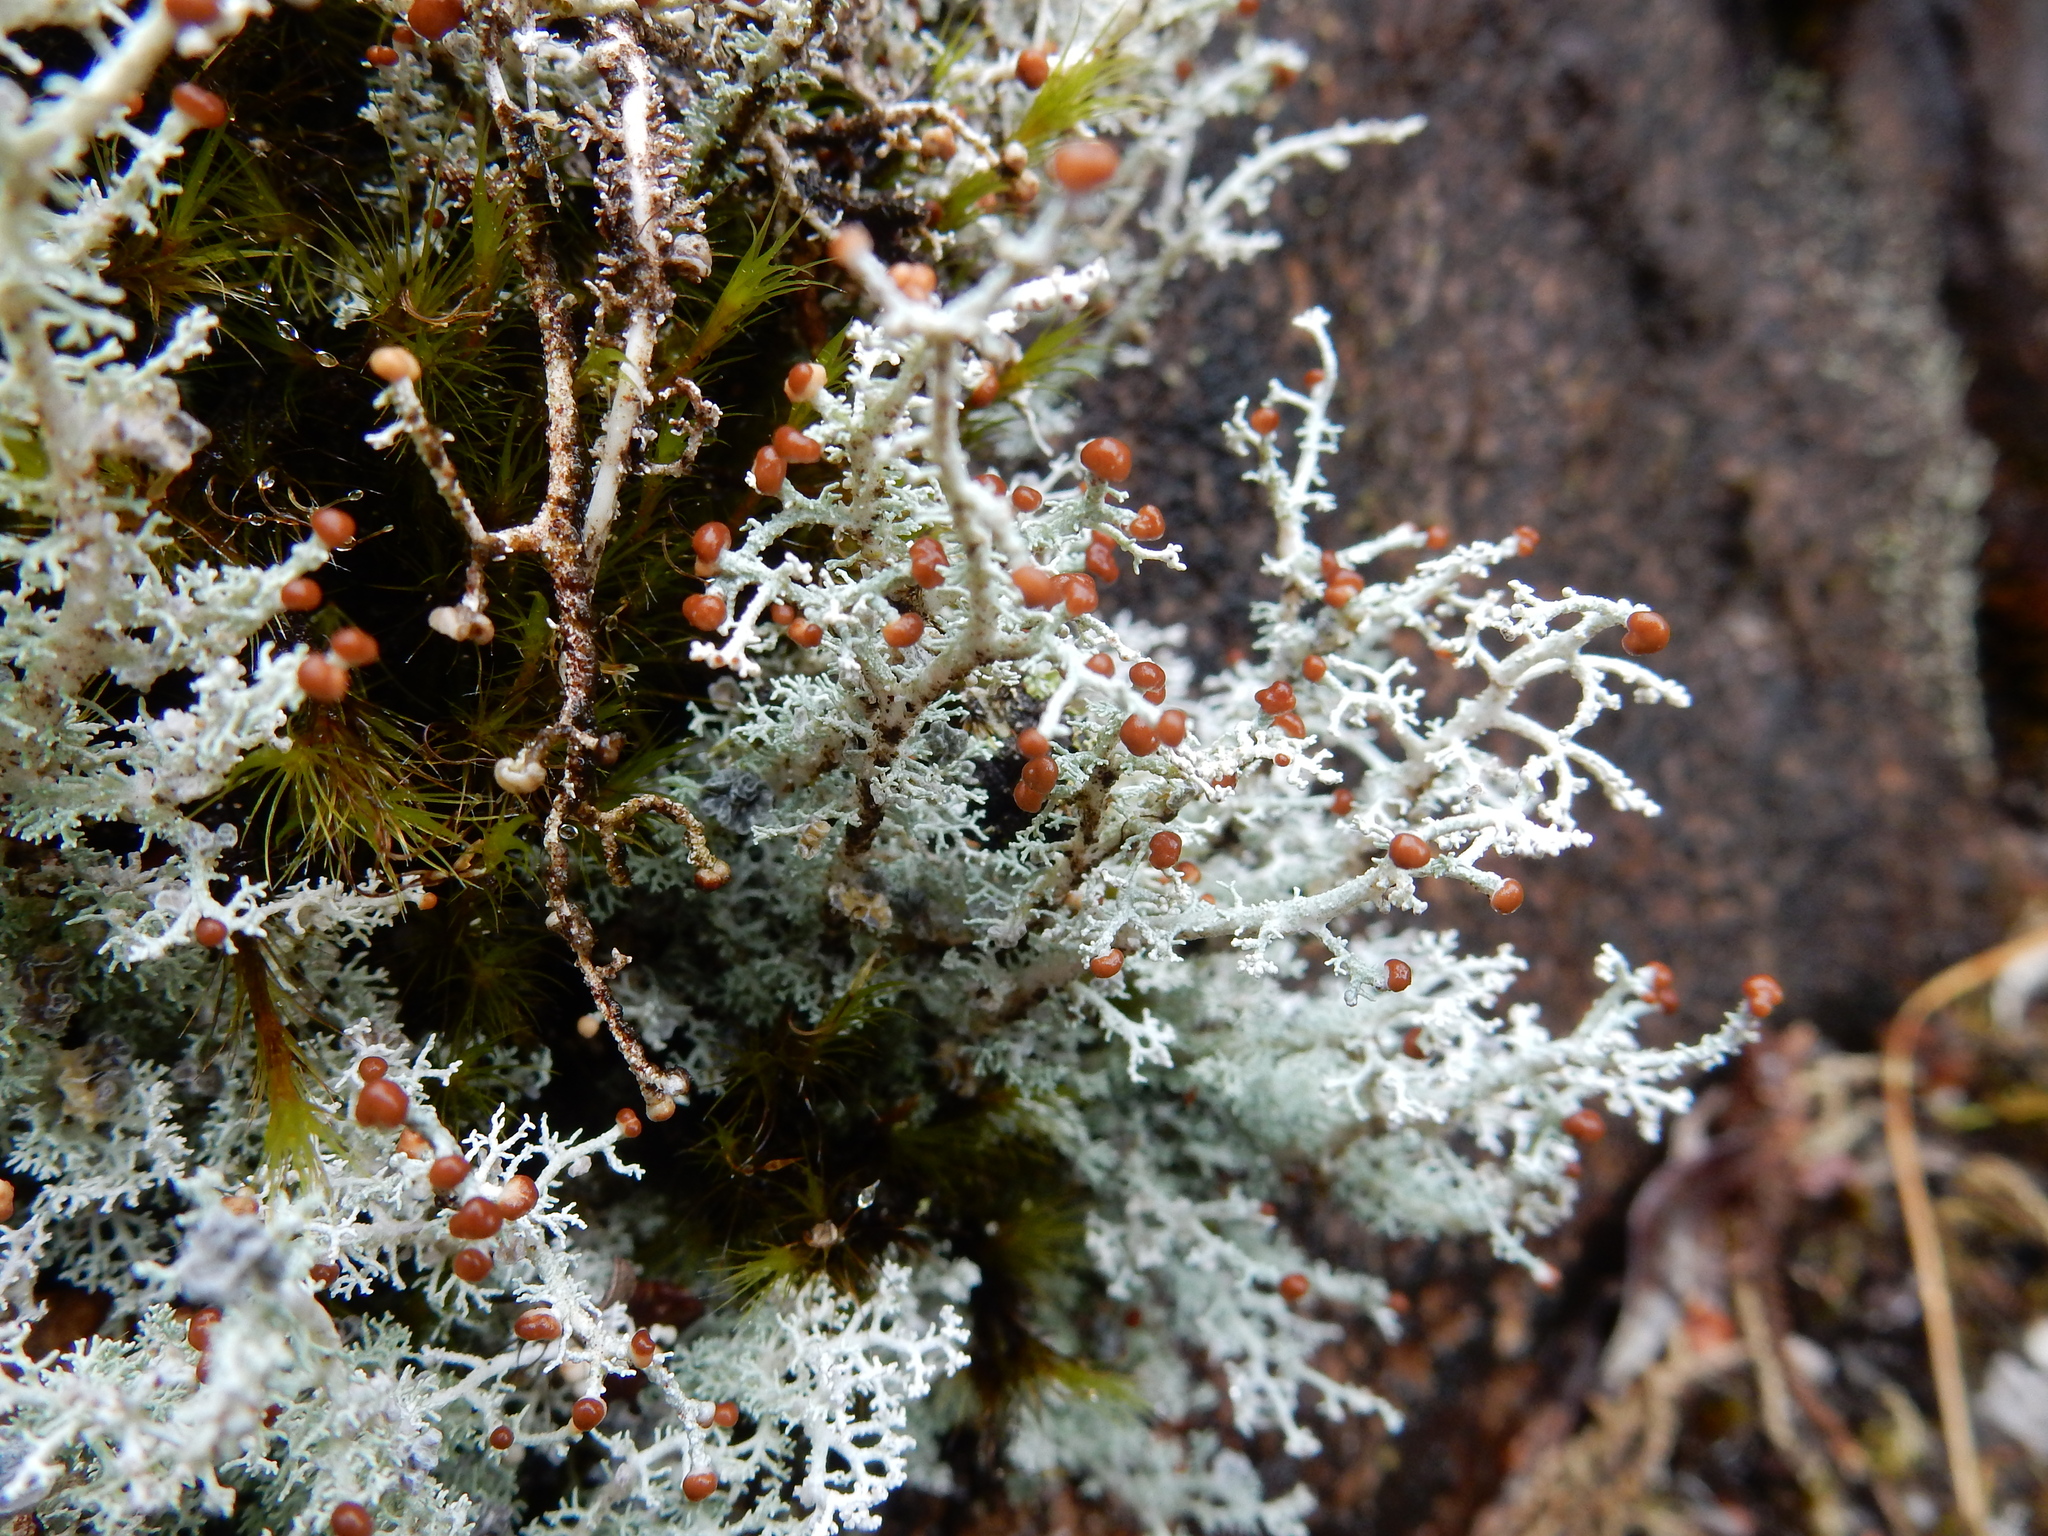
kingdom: Fungi
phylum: Ascomycota
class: Lecanoromycetes
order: Lecanorales
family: Stereocaulaceae
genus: Stereocaulon
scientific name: Stereocaulon ramulosum
